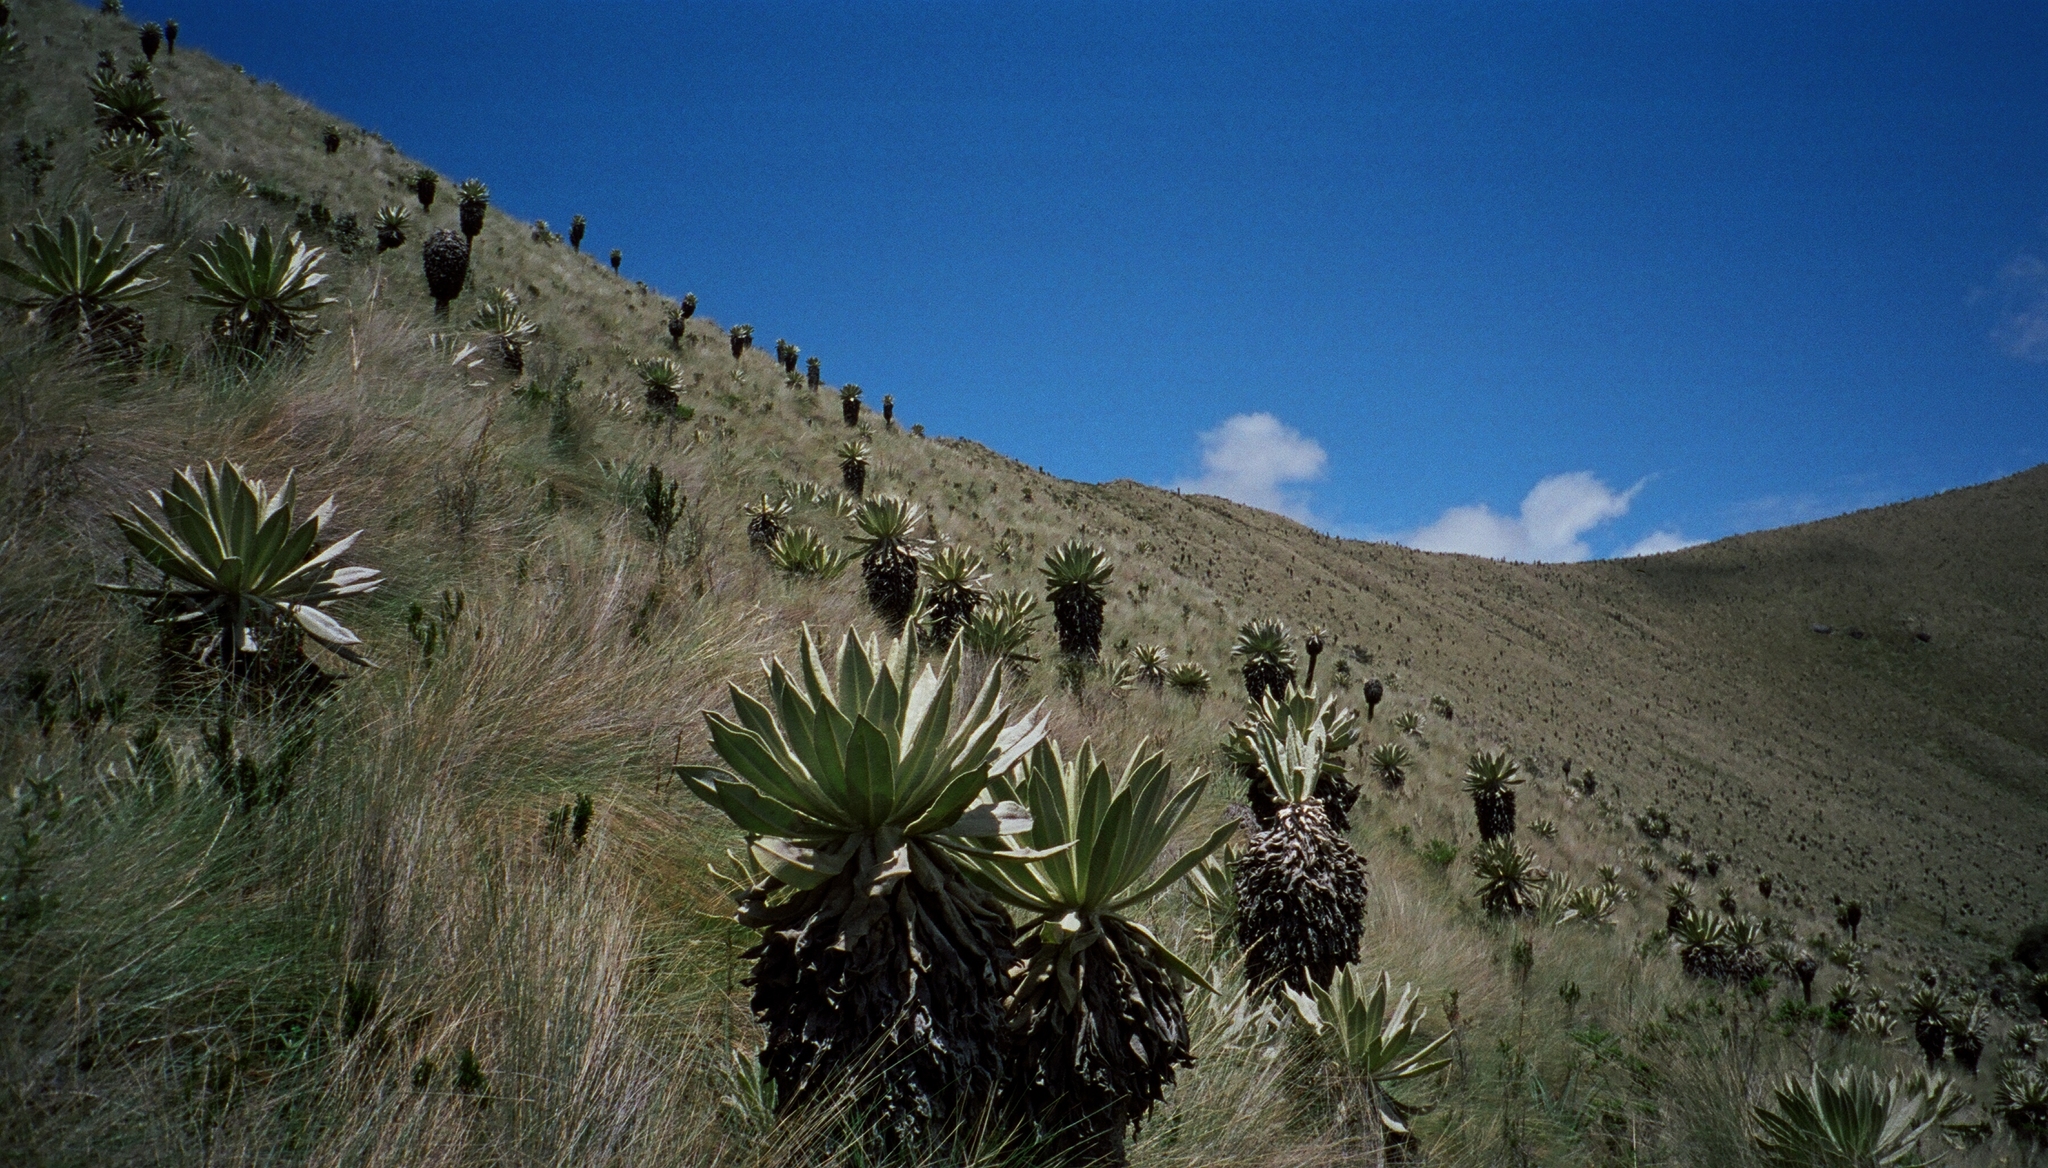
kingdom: Plantae
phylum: Tracheophyta
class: Magnoliopsida
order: Asterales
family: Asteraceae
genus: Espeletia
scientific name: Espeletia pycnophylla
